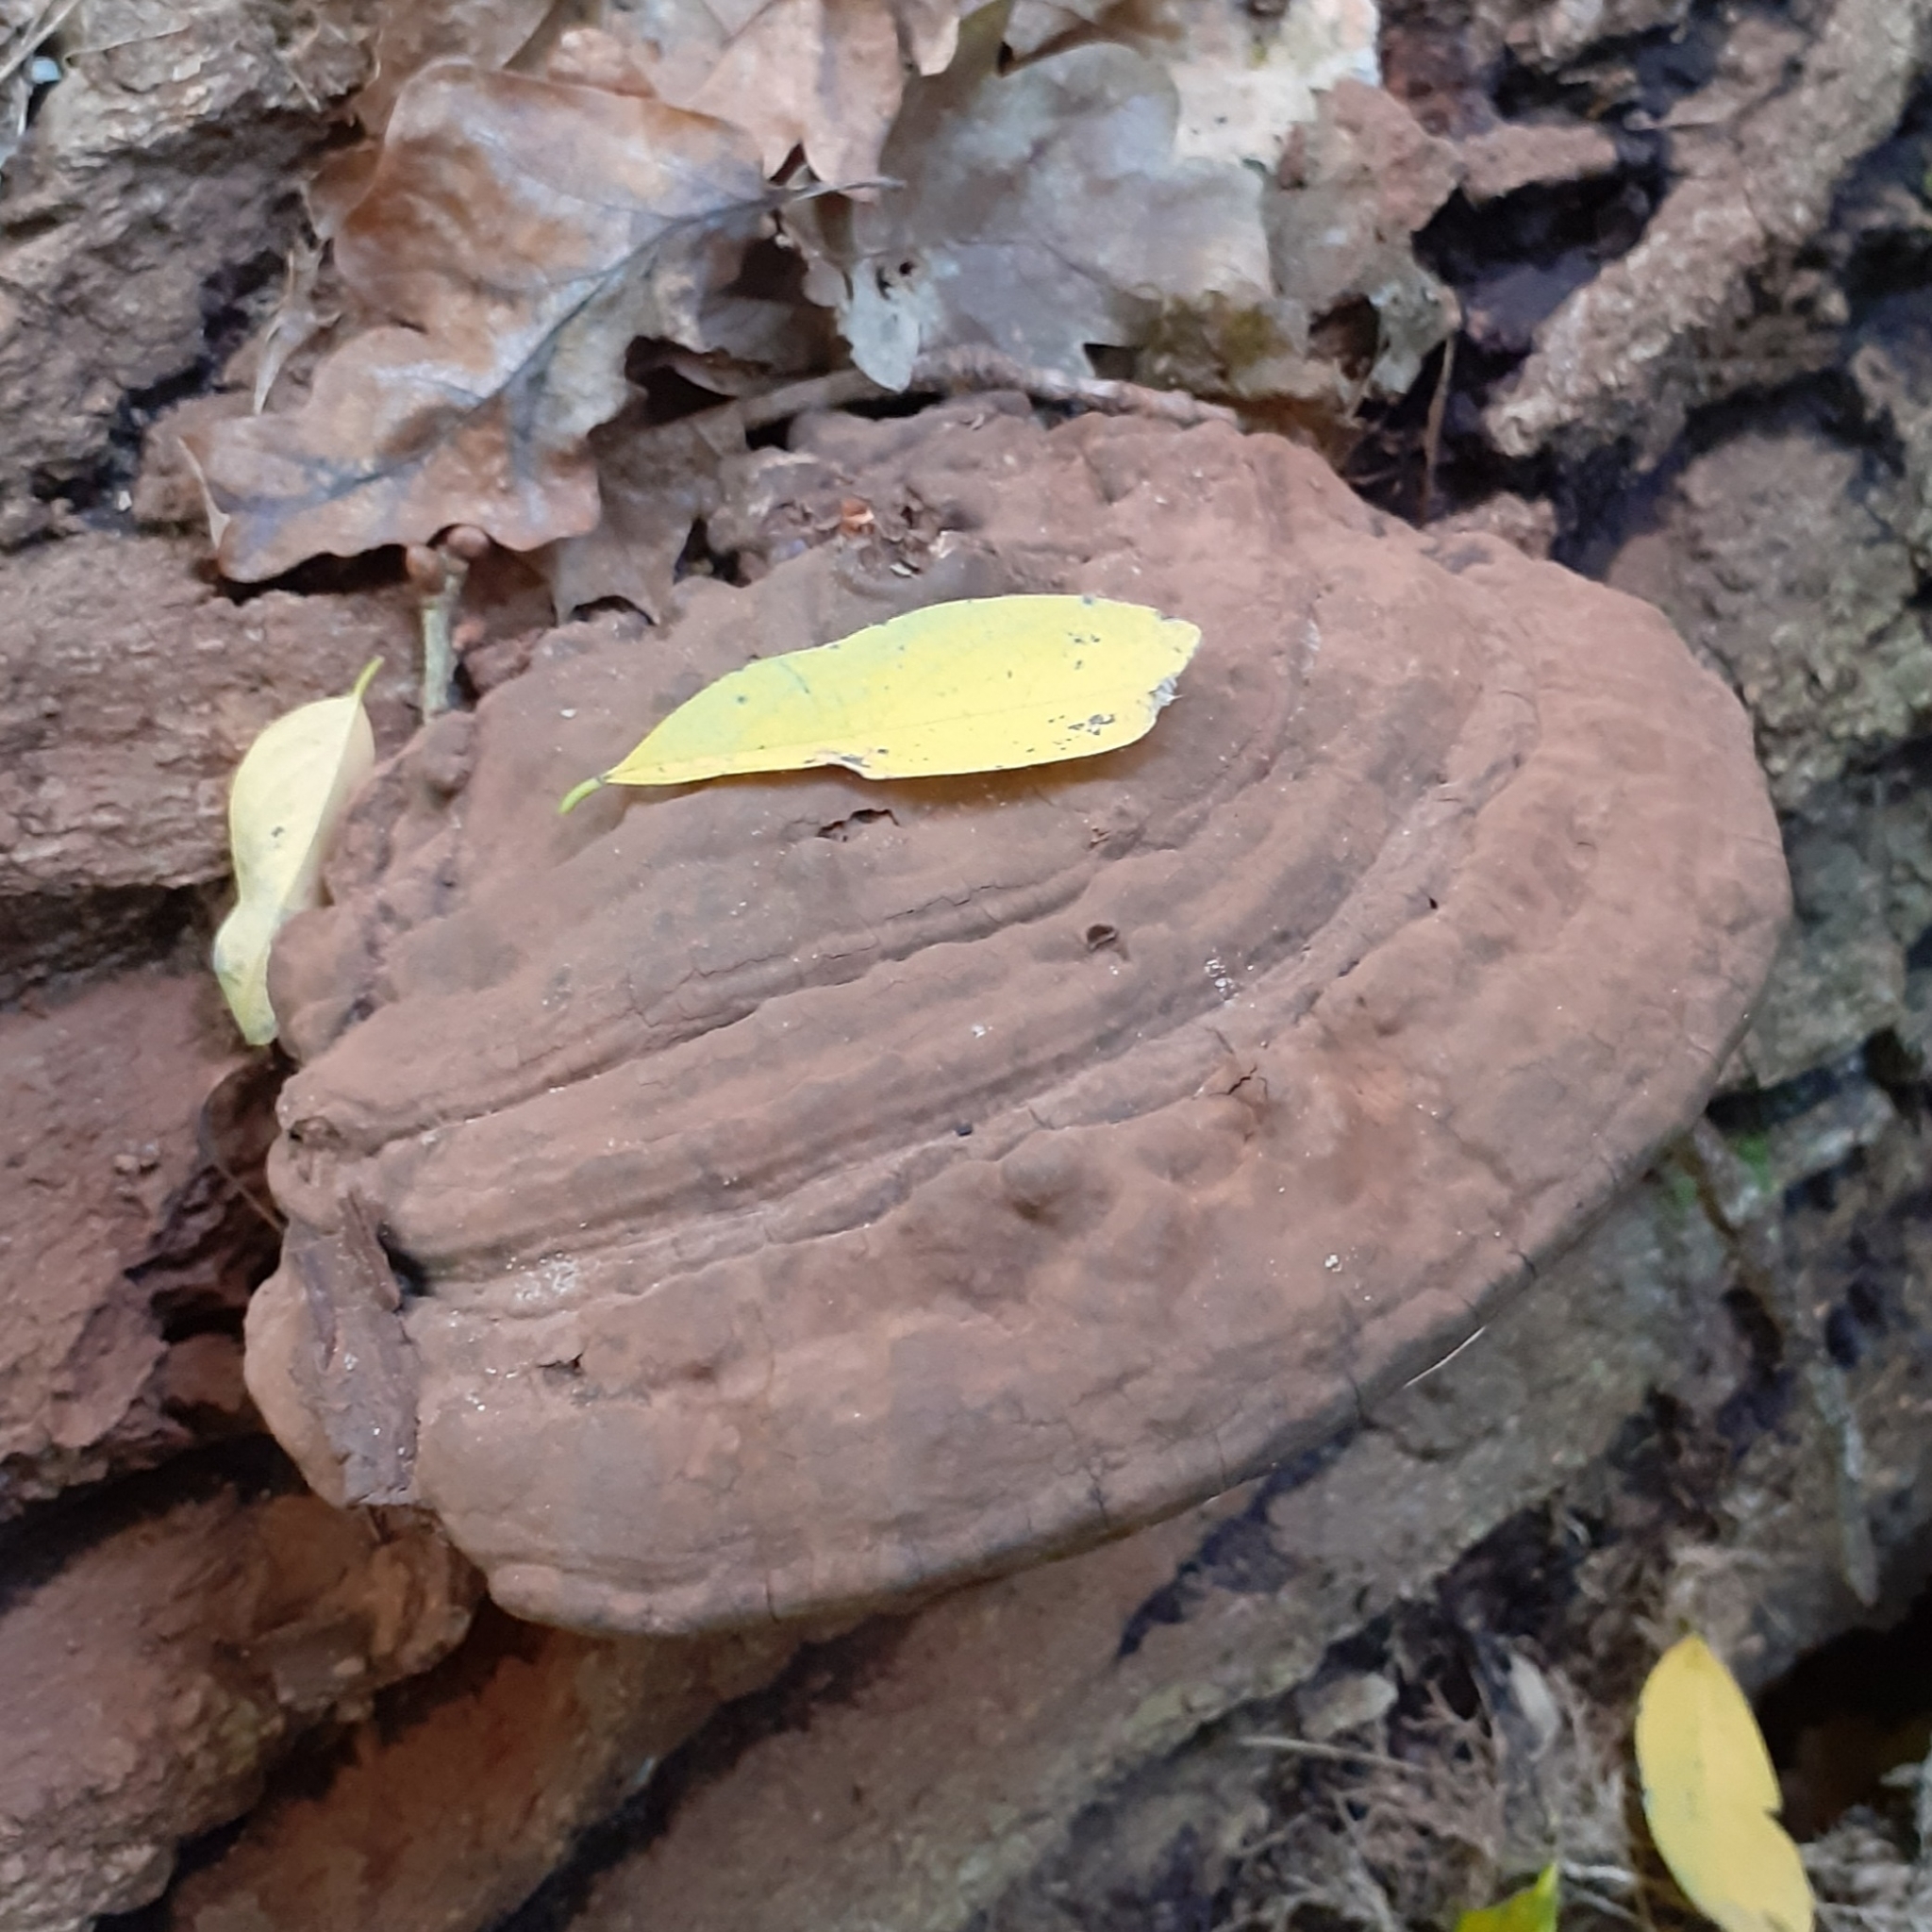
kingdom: Fungi
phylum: Basidiomycota
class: Agaricomycetes
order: Polyporales
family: Polyporaceae
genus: Ganoderma
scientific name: Ganoderma applanatum
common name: Artist's bracket
